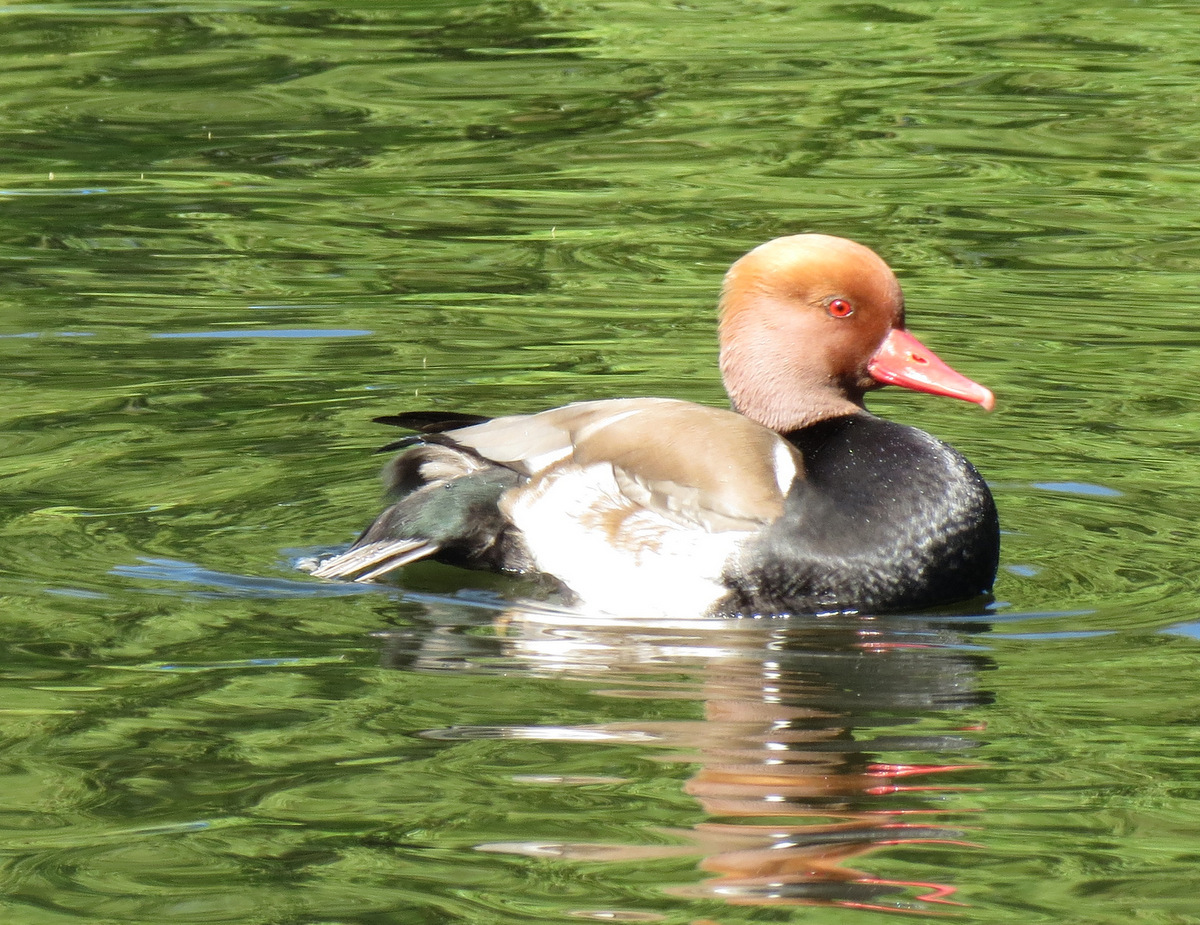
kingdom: Animalia
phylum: Chordata
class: Aves
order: Anseriformes
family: Anatidae
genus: Netta
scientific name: Netta rufina
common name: Red-crested pochard
